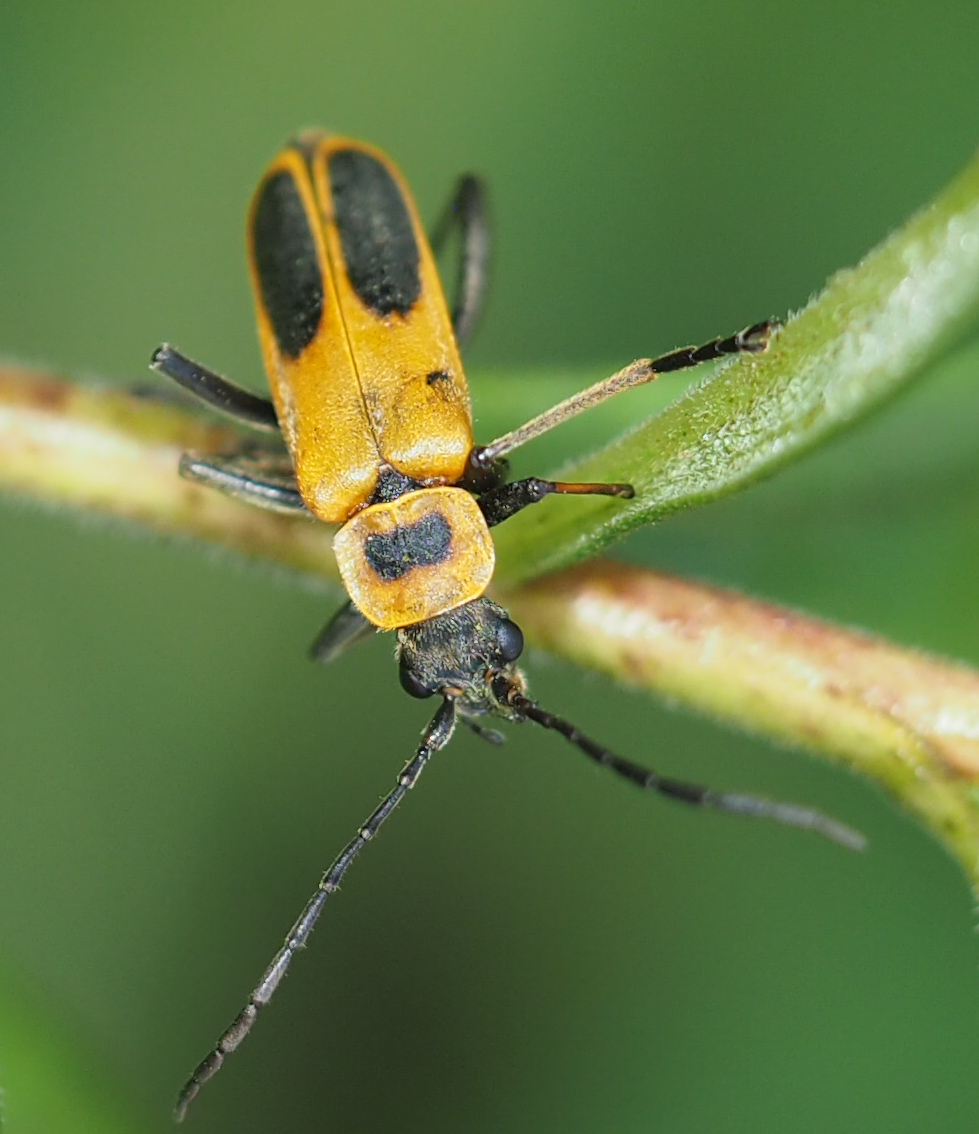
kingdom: Animalia
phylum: Arthropoda
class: Insecta
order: Coleoptera
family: Cantharidae
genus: Chauliognathus
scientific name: Chauliognathus pensylvanicus
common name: Goldenrod soldier beetle
